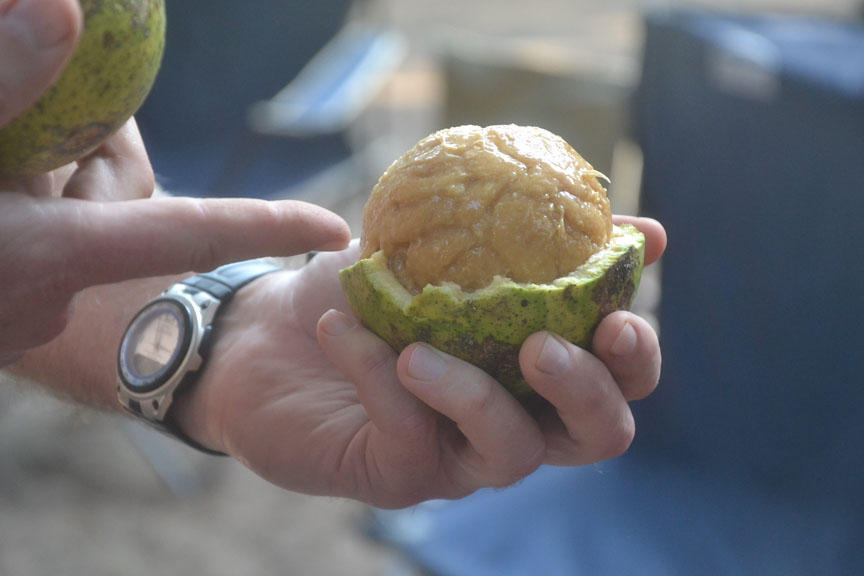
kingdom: Plantae
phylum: Tracheophyta
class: Magnoliopsida
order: Gentianales
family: Loganiaceae
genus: Strychnos
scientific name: Strychnos spinosa
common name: Natal orange
